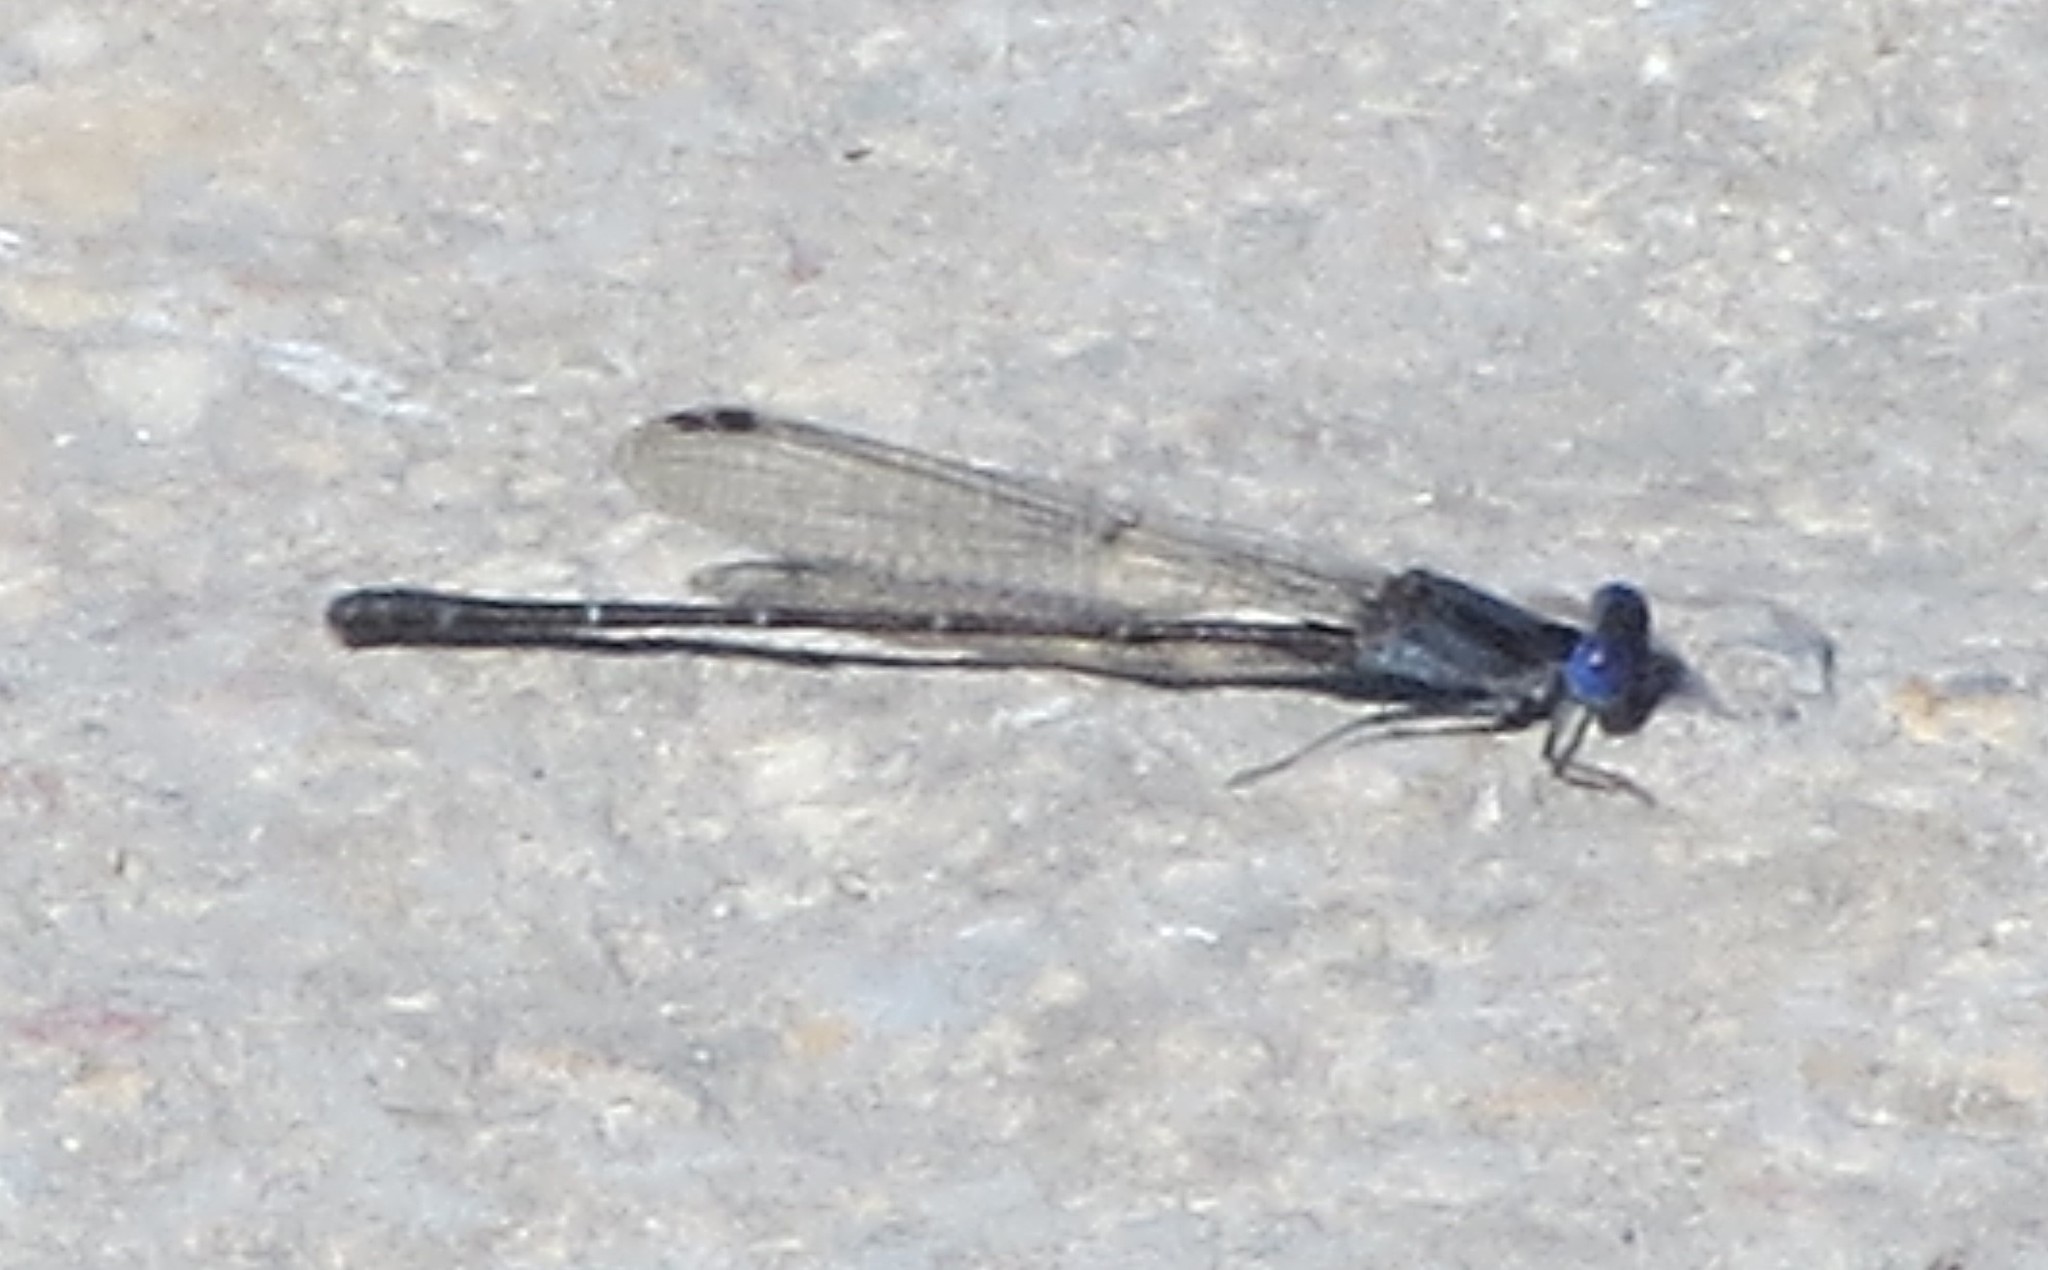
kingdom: Animalia
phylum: Arthropoda
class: Insecta
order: Odonata
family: Coenagrionidae
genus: Argia
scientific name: Argia translata
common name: Dusky dancer
